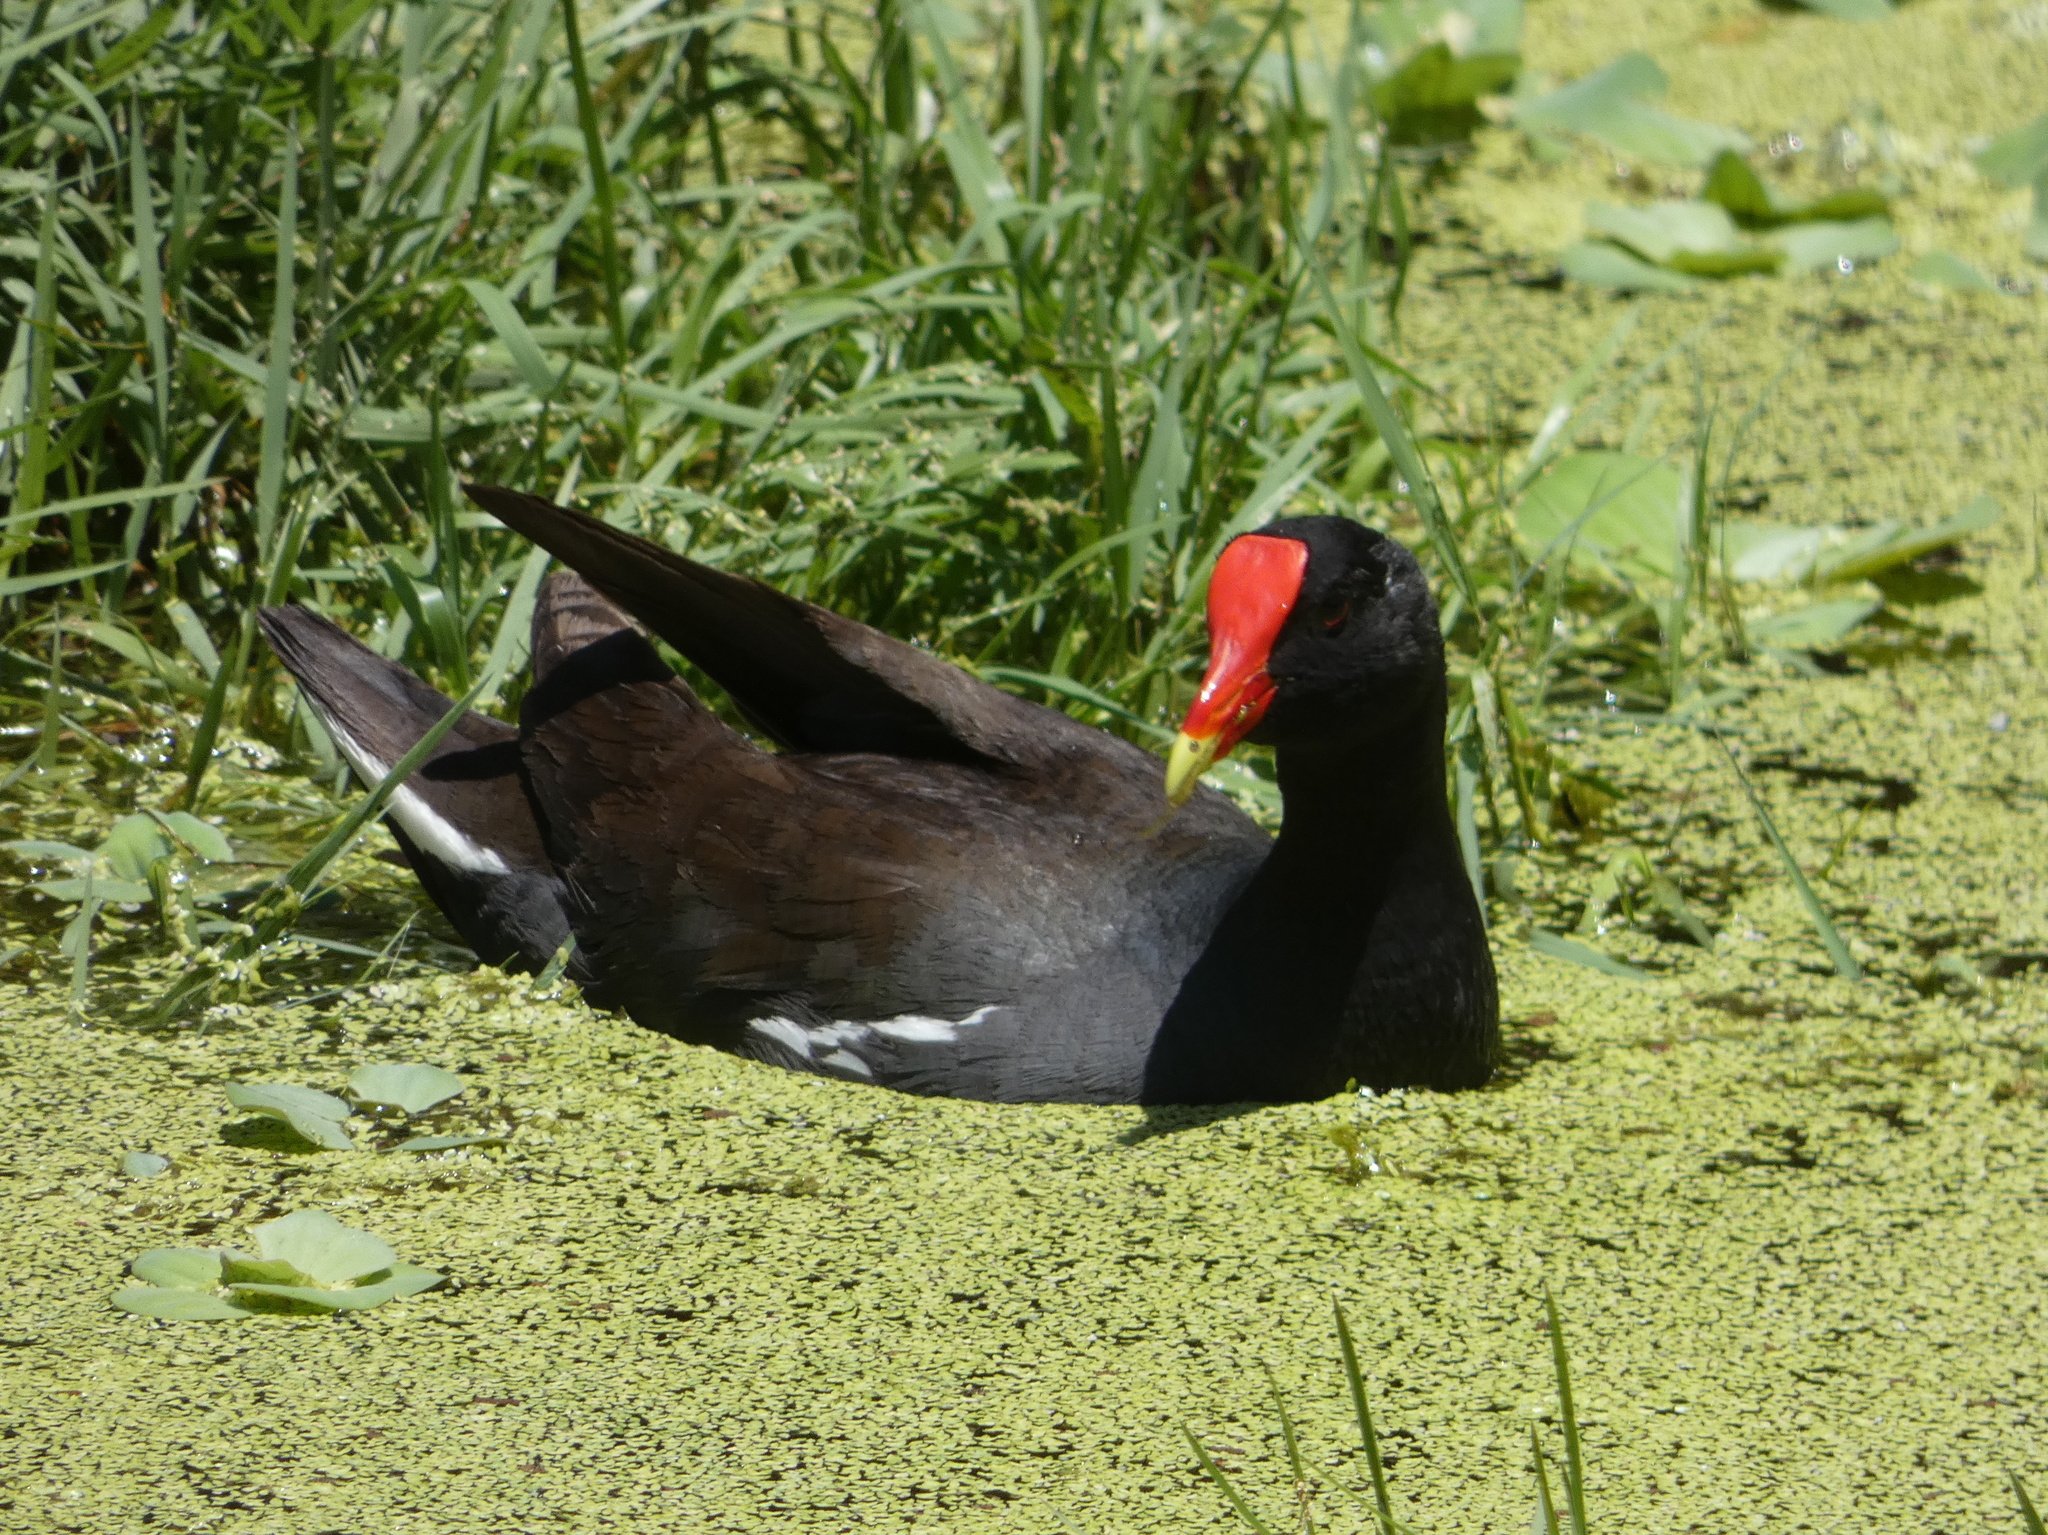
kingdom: Animalia
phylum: Chordata
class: Aves
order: Gruiformes
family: Rallidae
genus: Gallinula
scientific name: Gallinula chloropus
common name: Common moorhen
